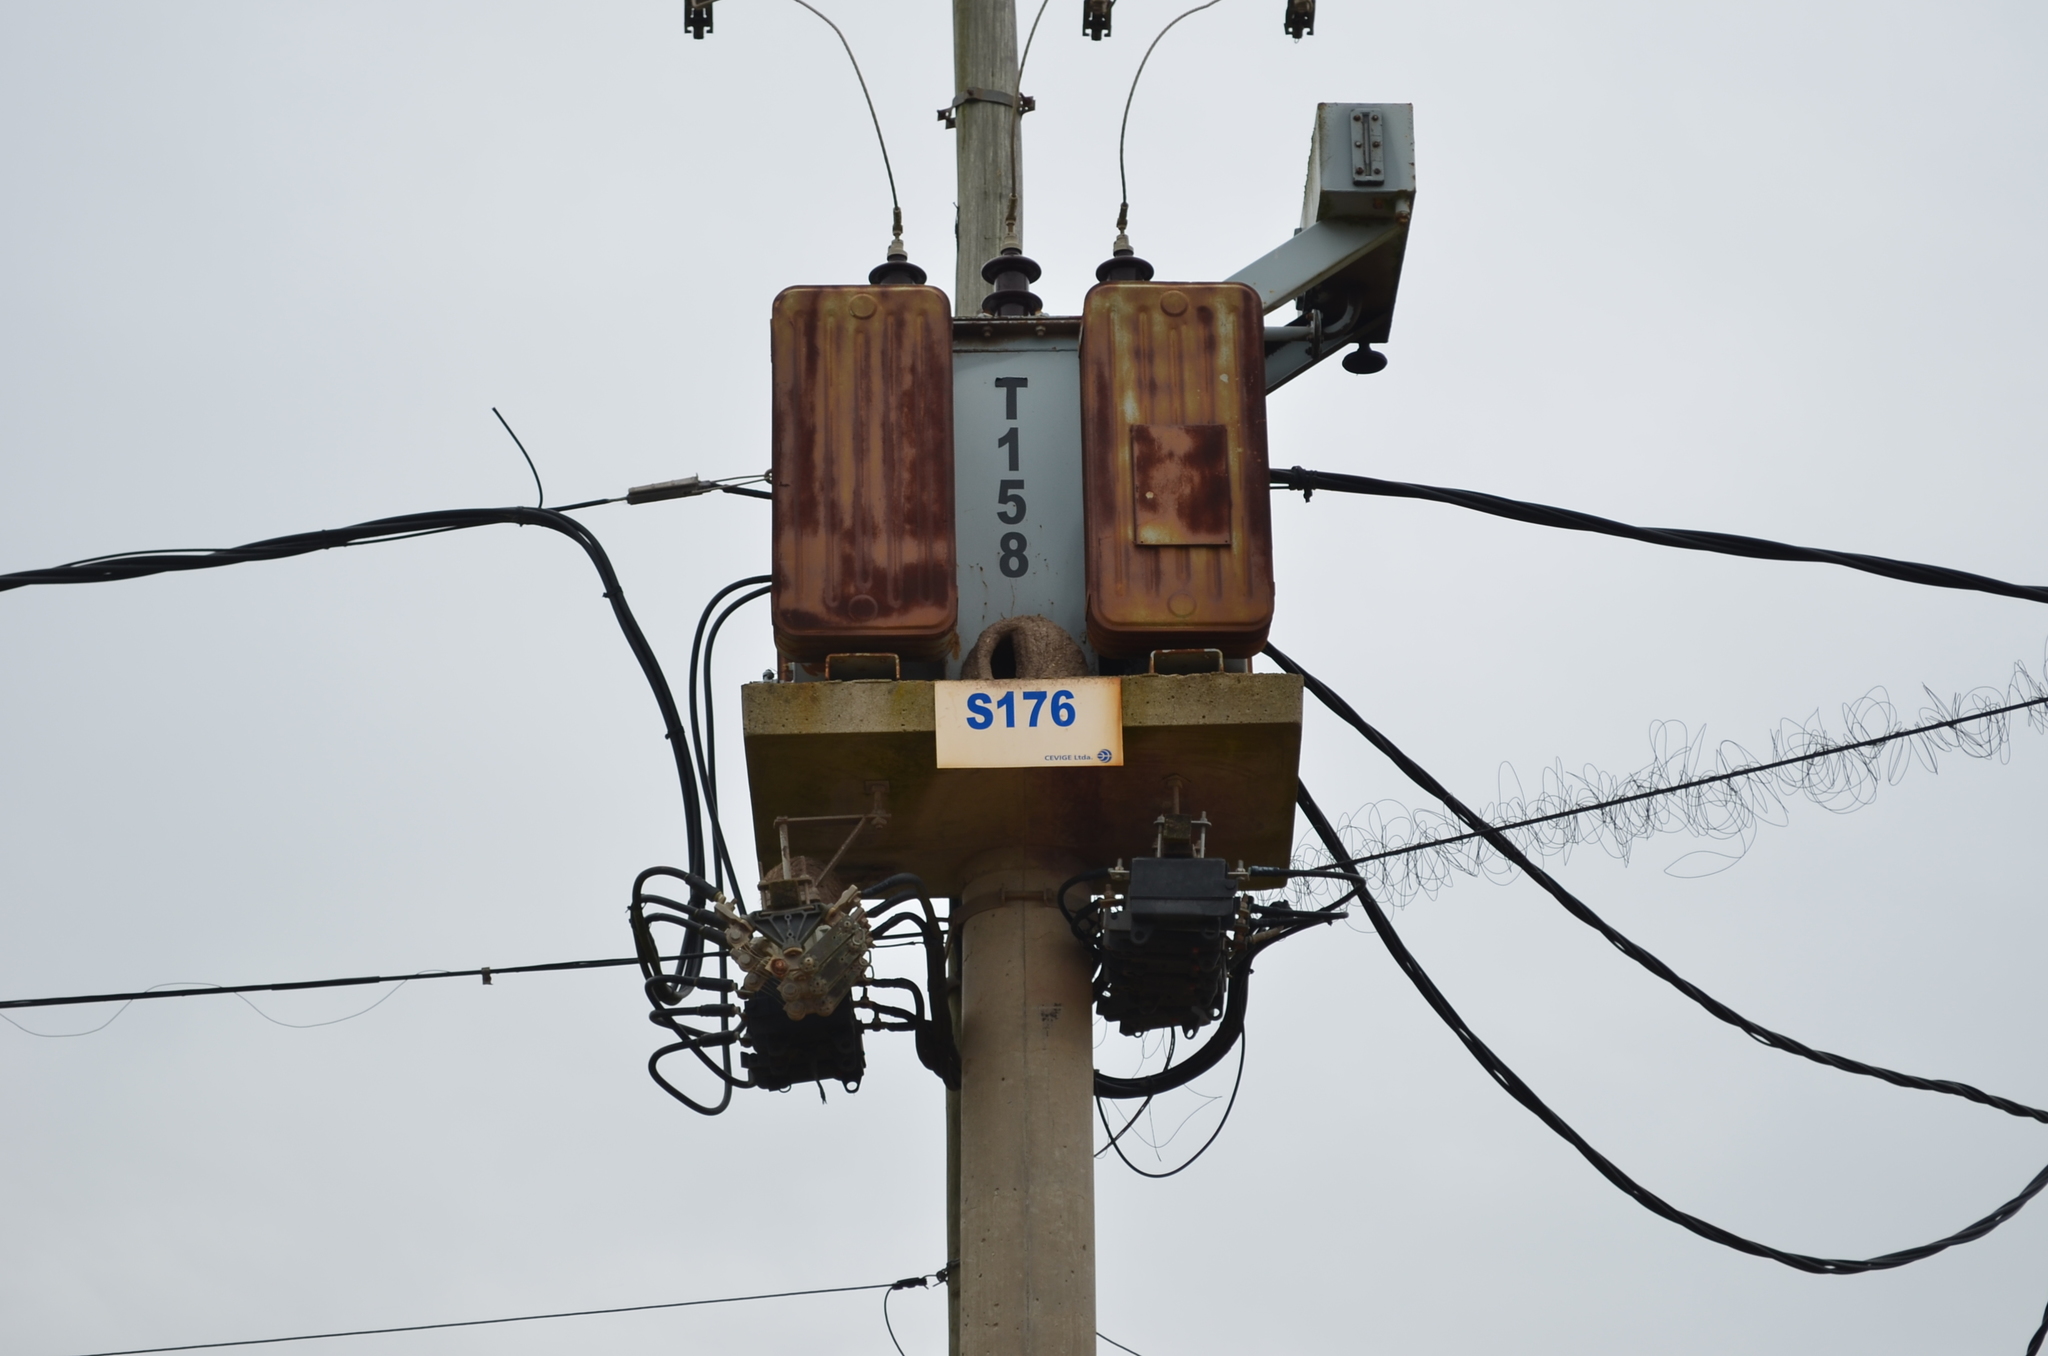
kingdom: Animalia
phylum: Chordata
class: Aves
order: Passeriformes
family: Furnariidae
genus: Furnarius
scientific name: Furnarius rufus
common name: Rufous hornero
